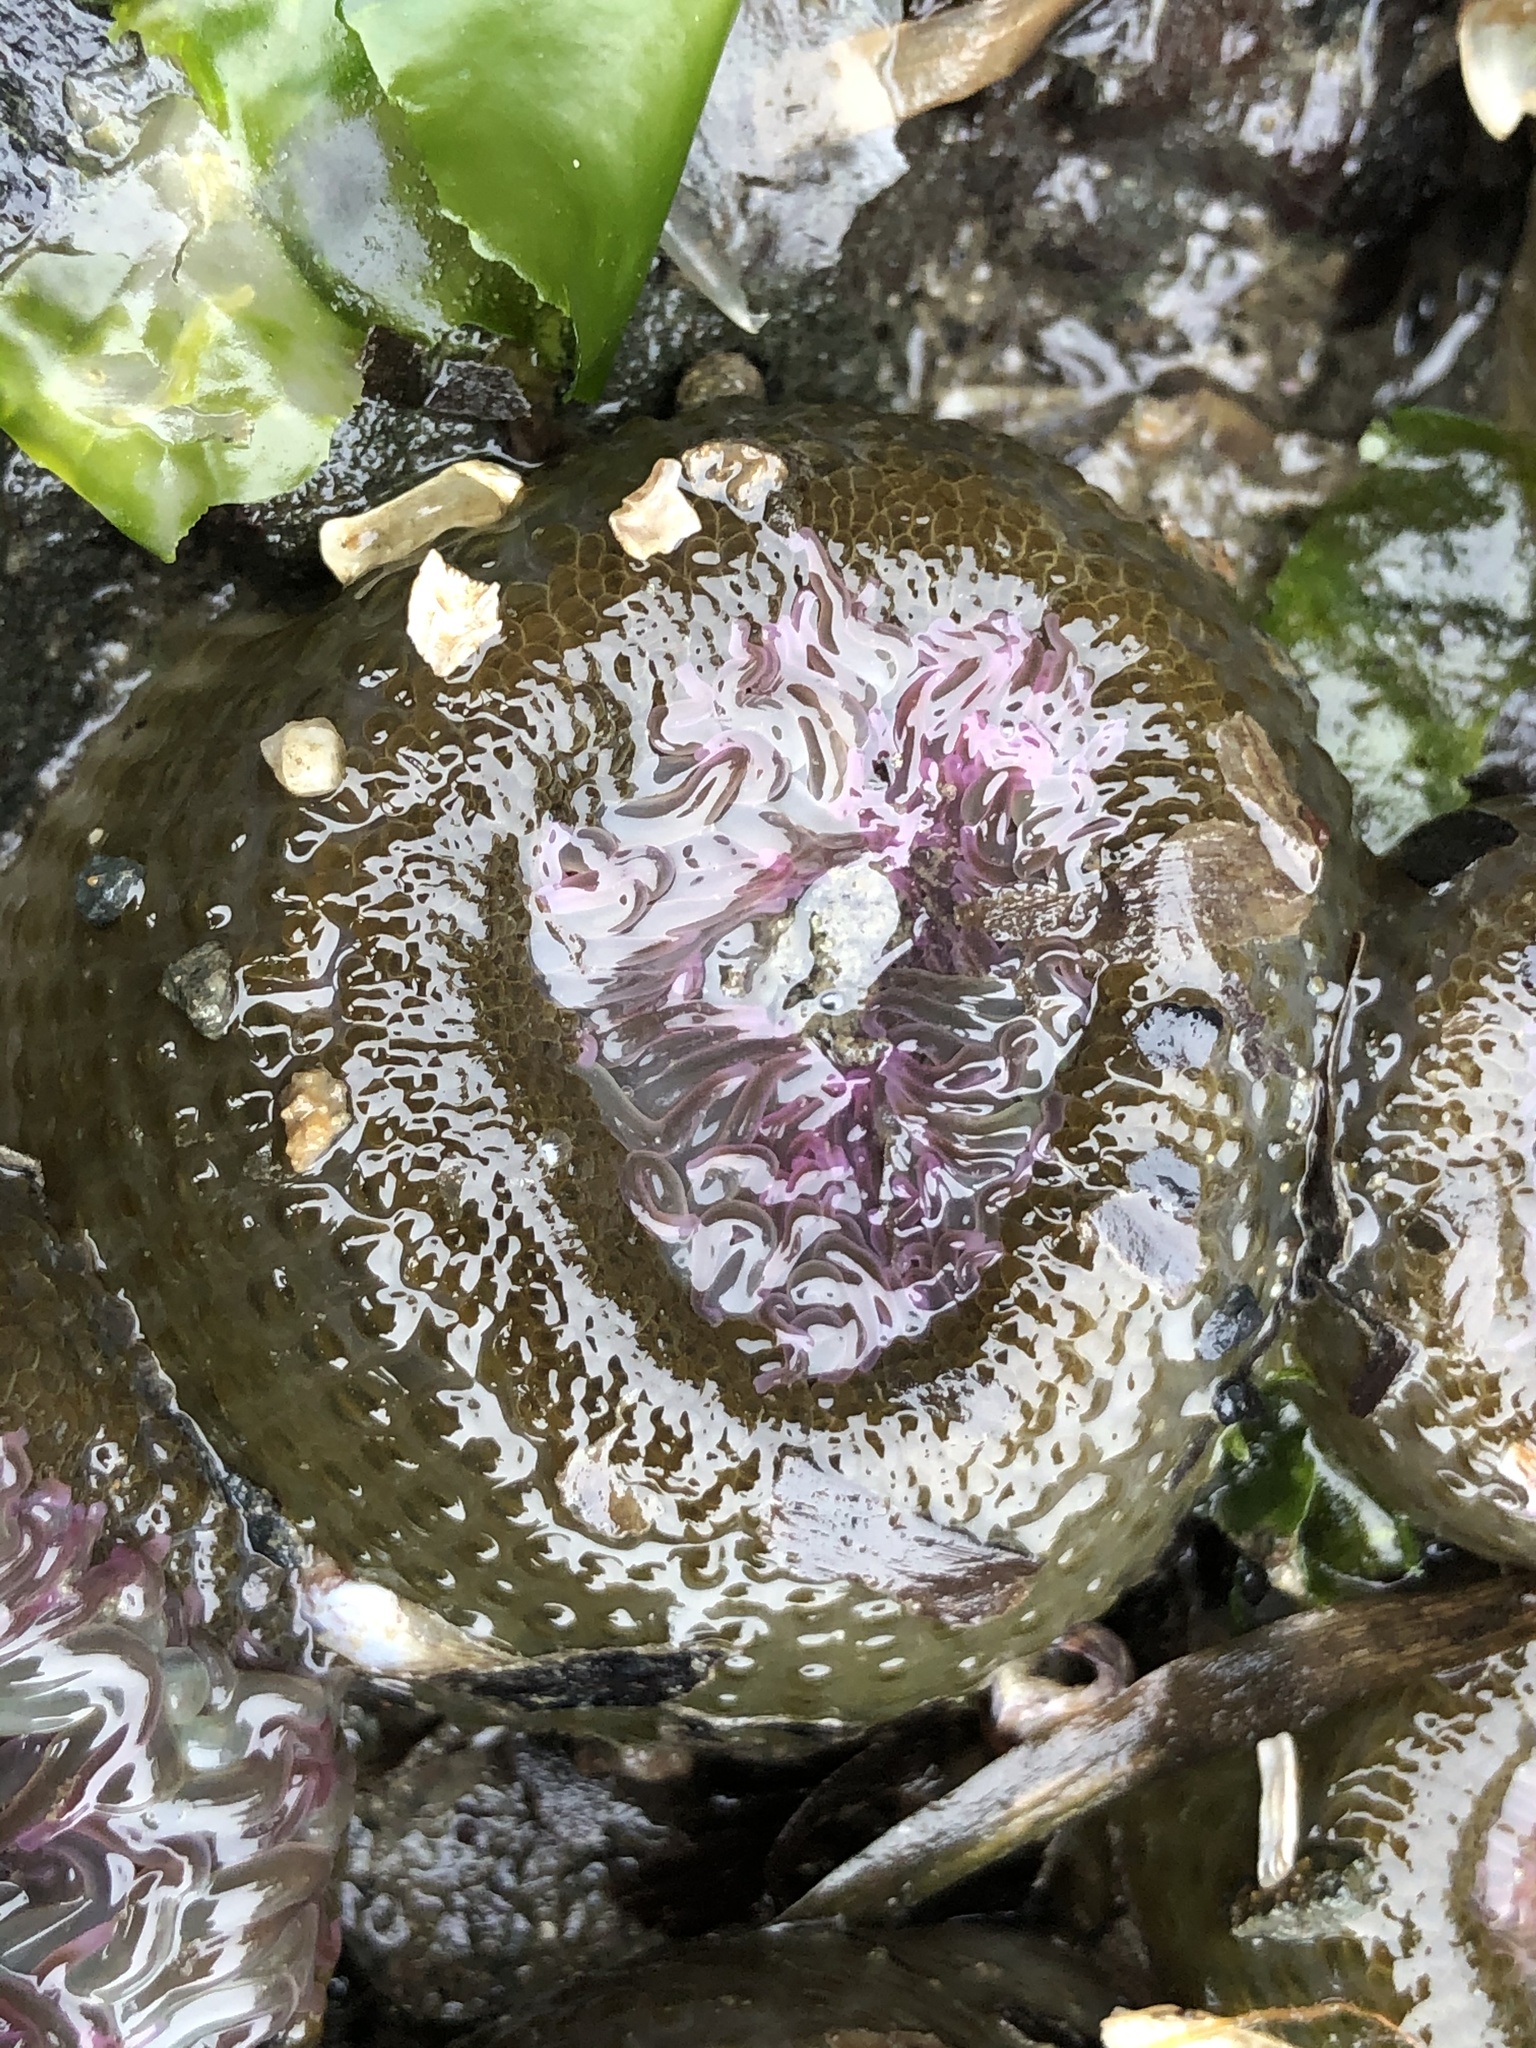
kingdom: Animalia
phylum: Cnidaria
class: Anthozoa
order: Actiniaria
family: Actiniidae
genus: Anthopleura
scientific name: Anthopleura elegantissima
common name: Clonal anemone
